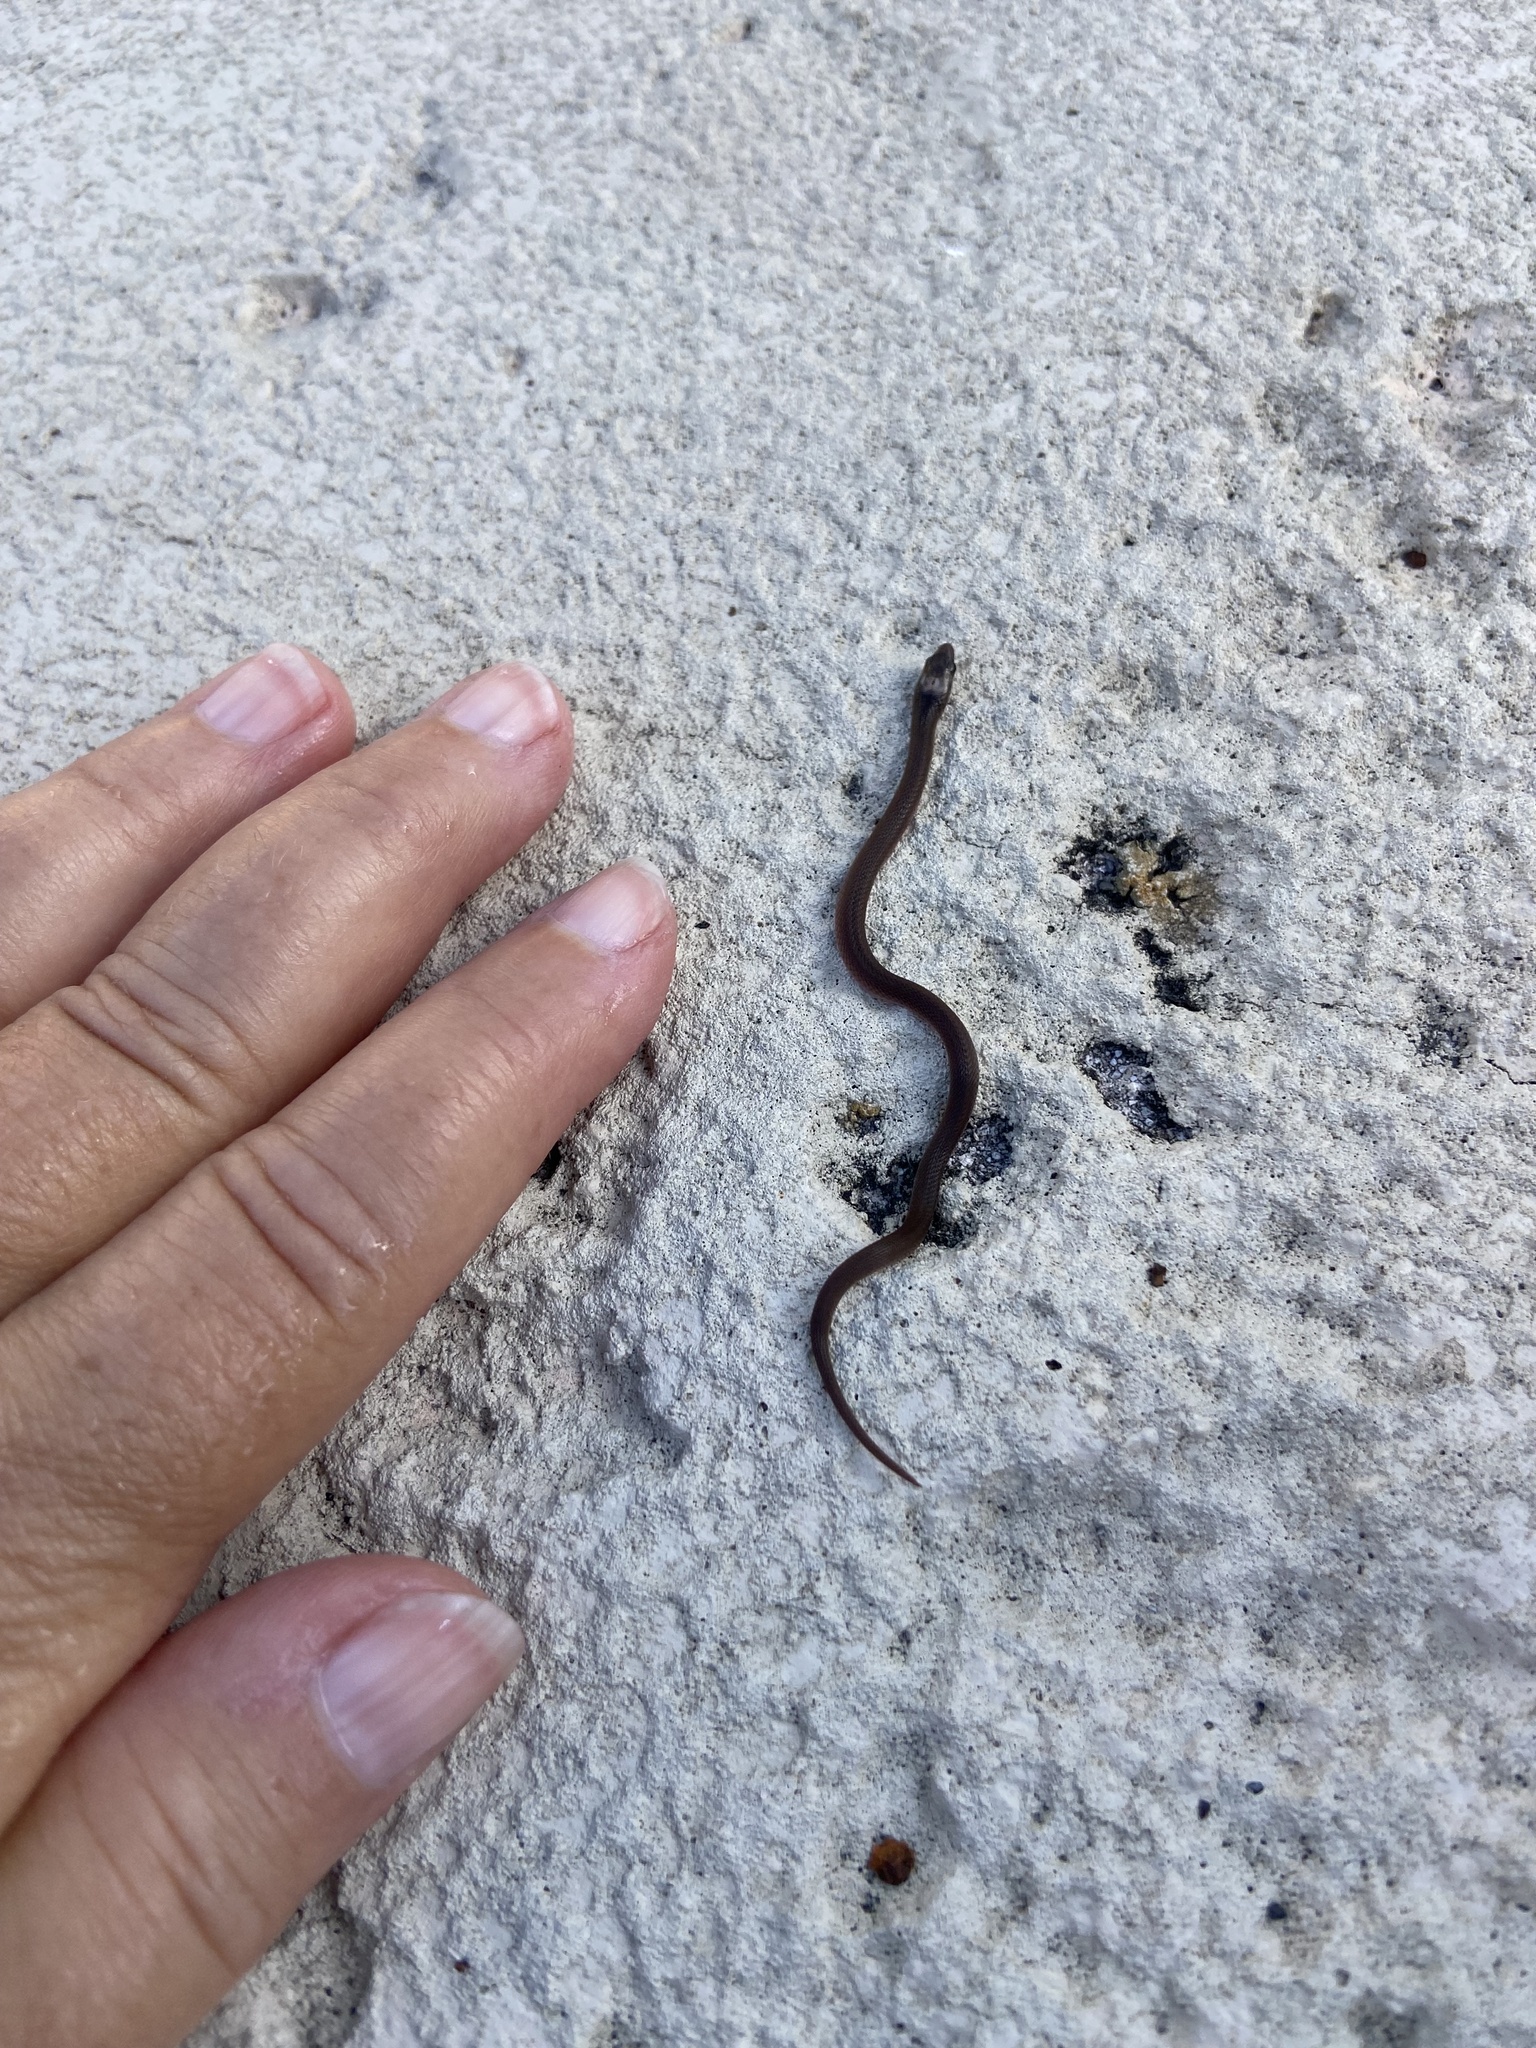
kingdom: Animalia
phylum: Chordata
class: Squamata
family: Colubridae
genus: Haldea
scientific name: Haldea striatula
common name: Rough earth snake
